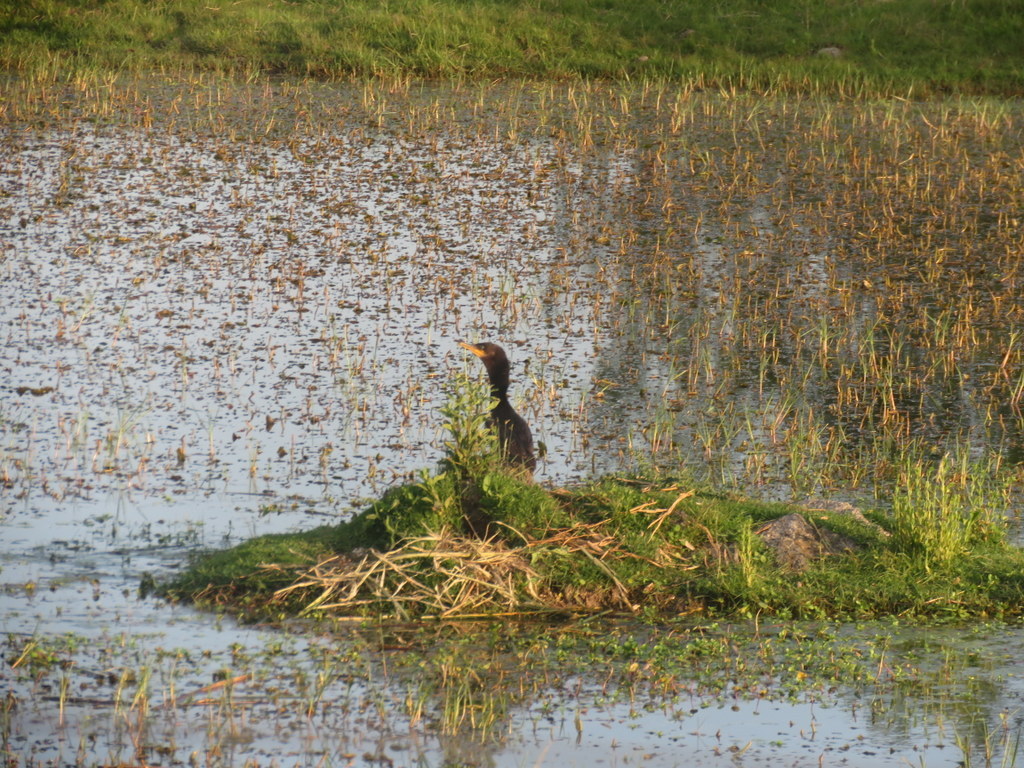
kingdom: Animalia
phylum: Chordata
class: Aves
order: Suliformes
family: Phalacrocoracidae
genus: Phalacrocorax
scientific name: Phalacrocorax brasilianus
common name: Neotropic cormorant
